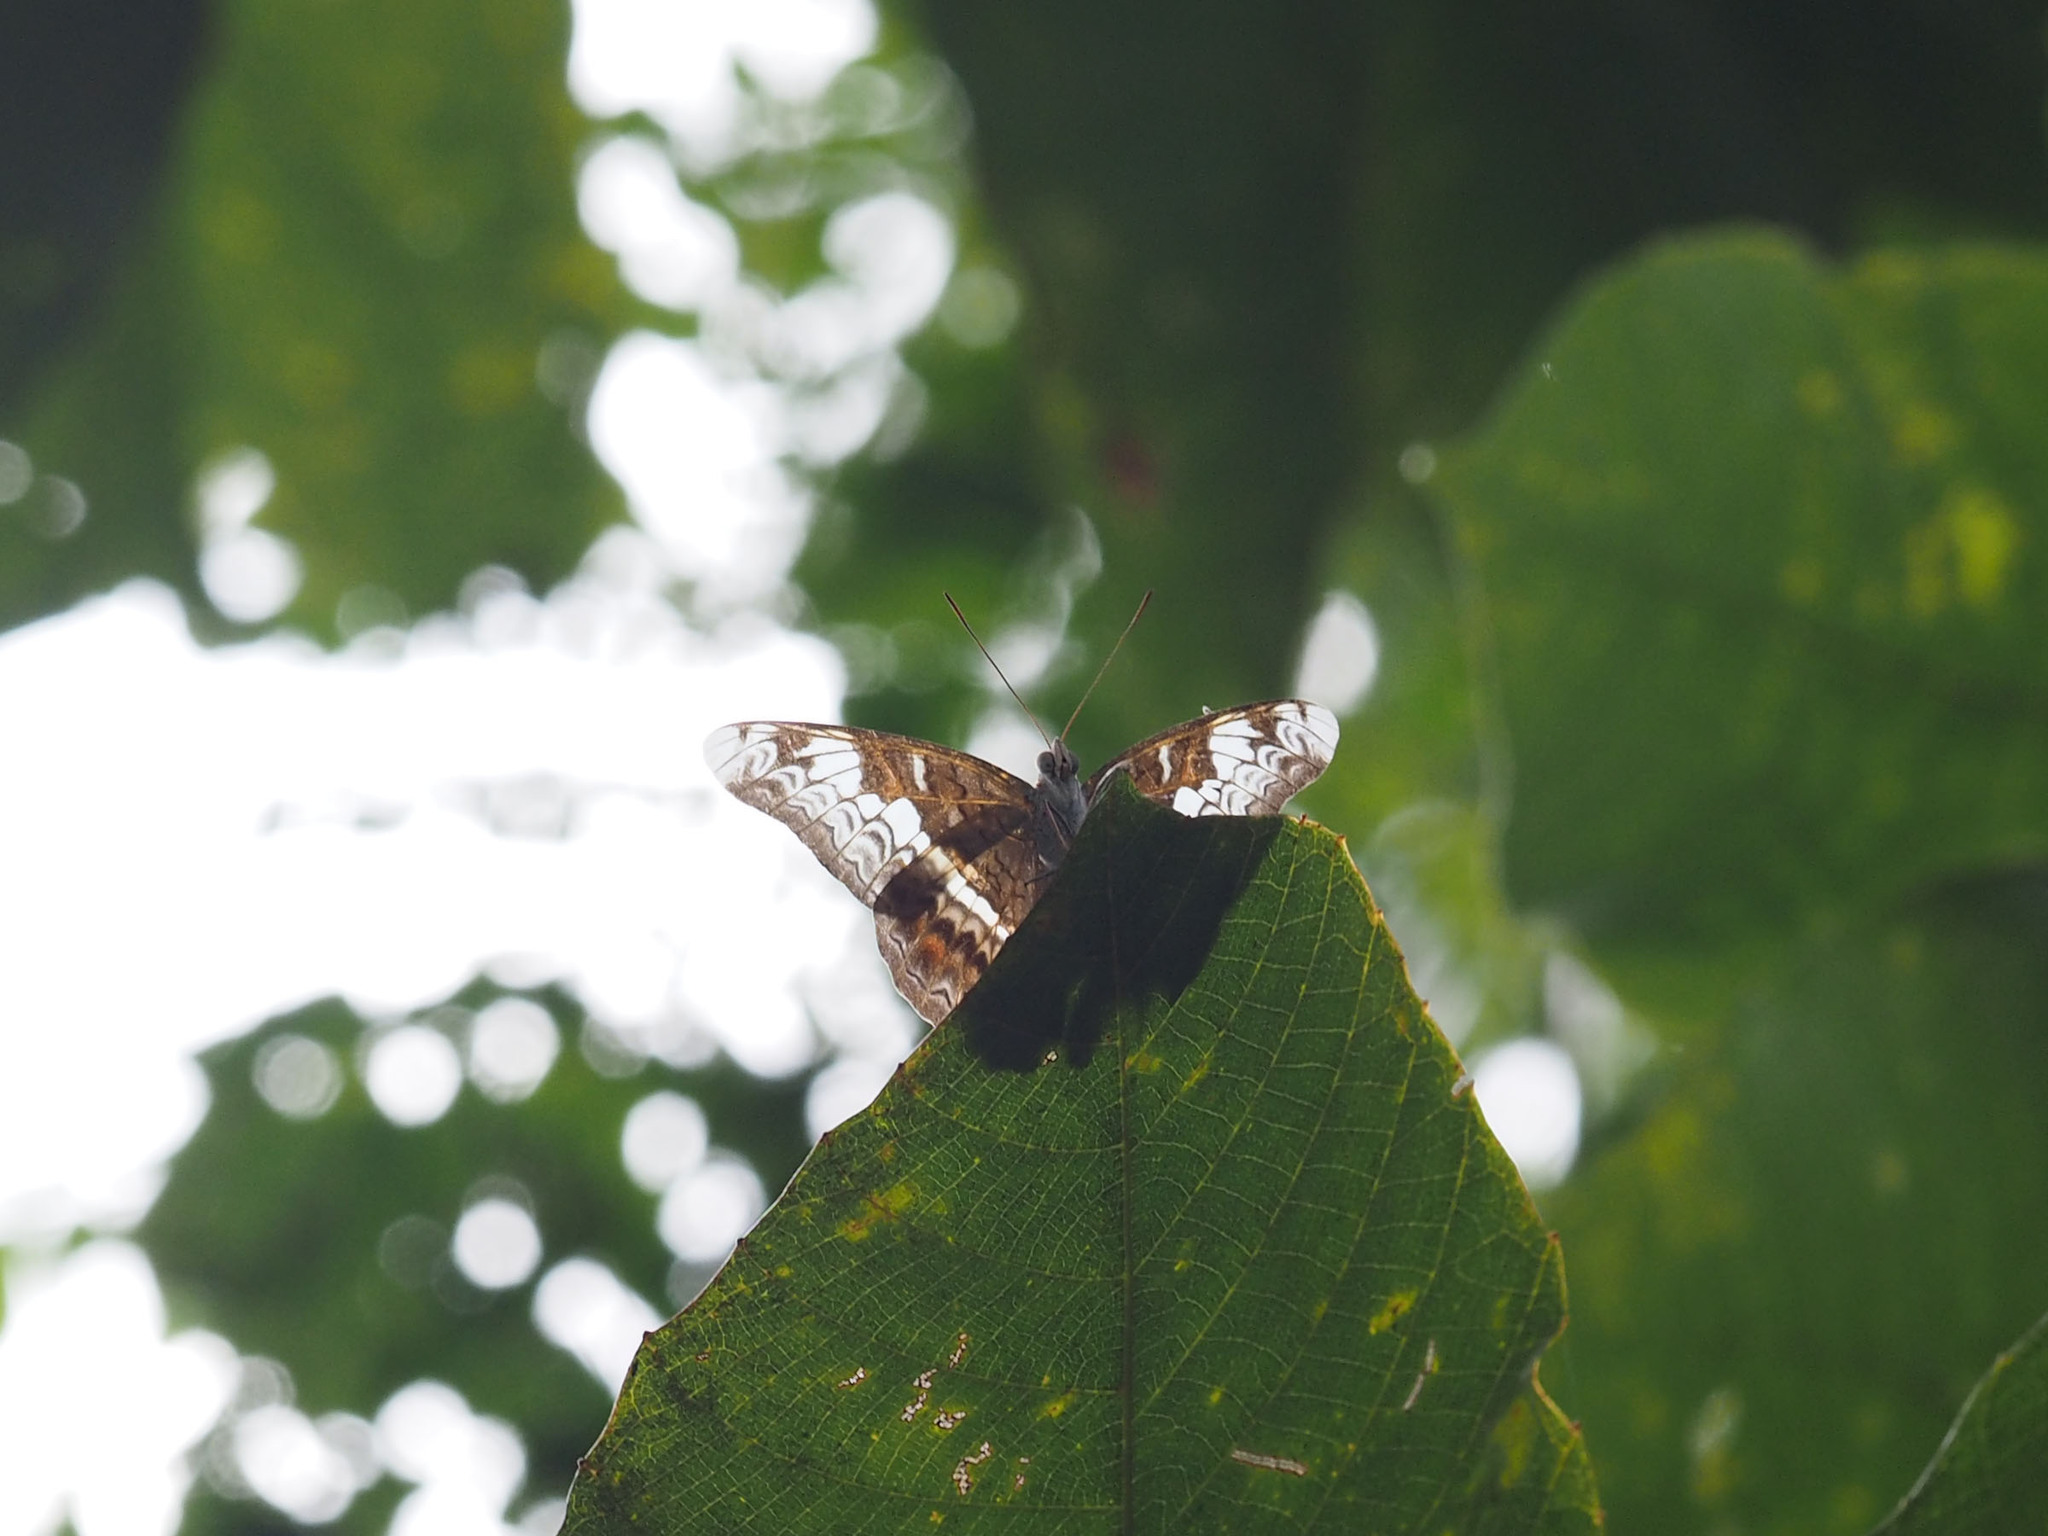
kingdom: Animalia
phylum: Arthropoda
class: Insecta
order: Lepidoptera
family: Nymphalidae
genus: Lebadea
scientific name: Lebadea martha
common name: Knight
